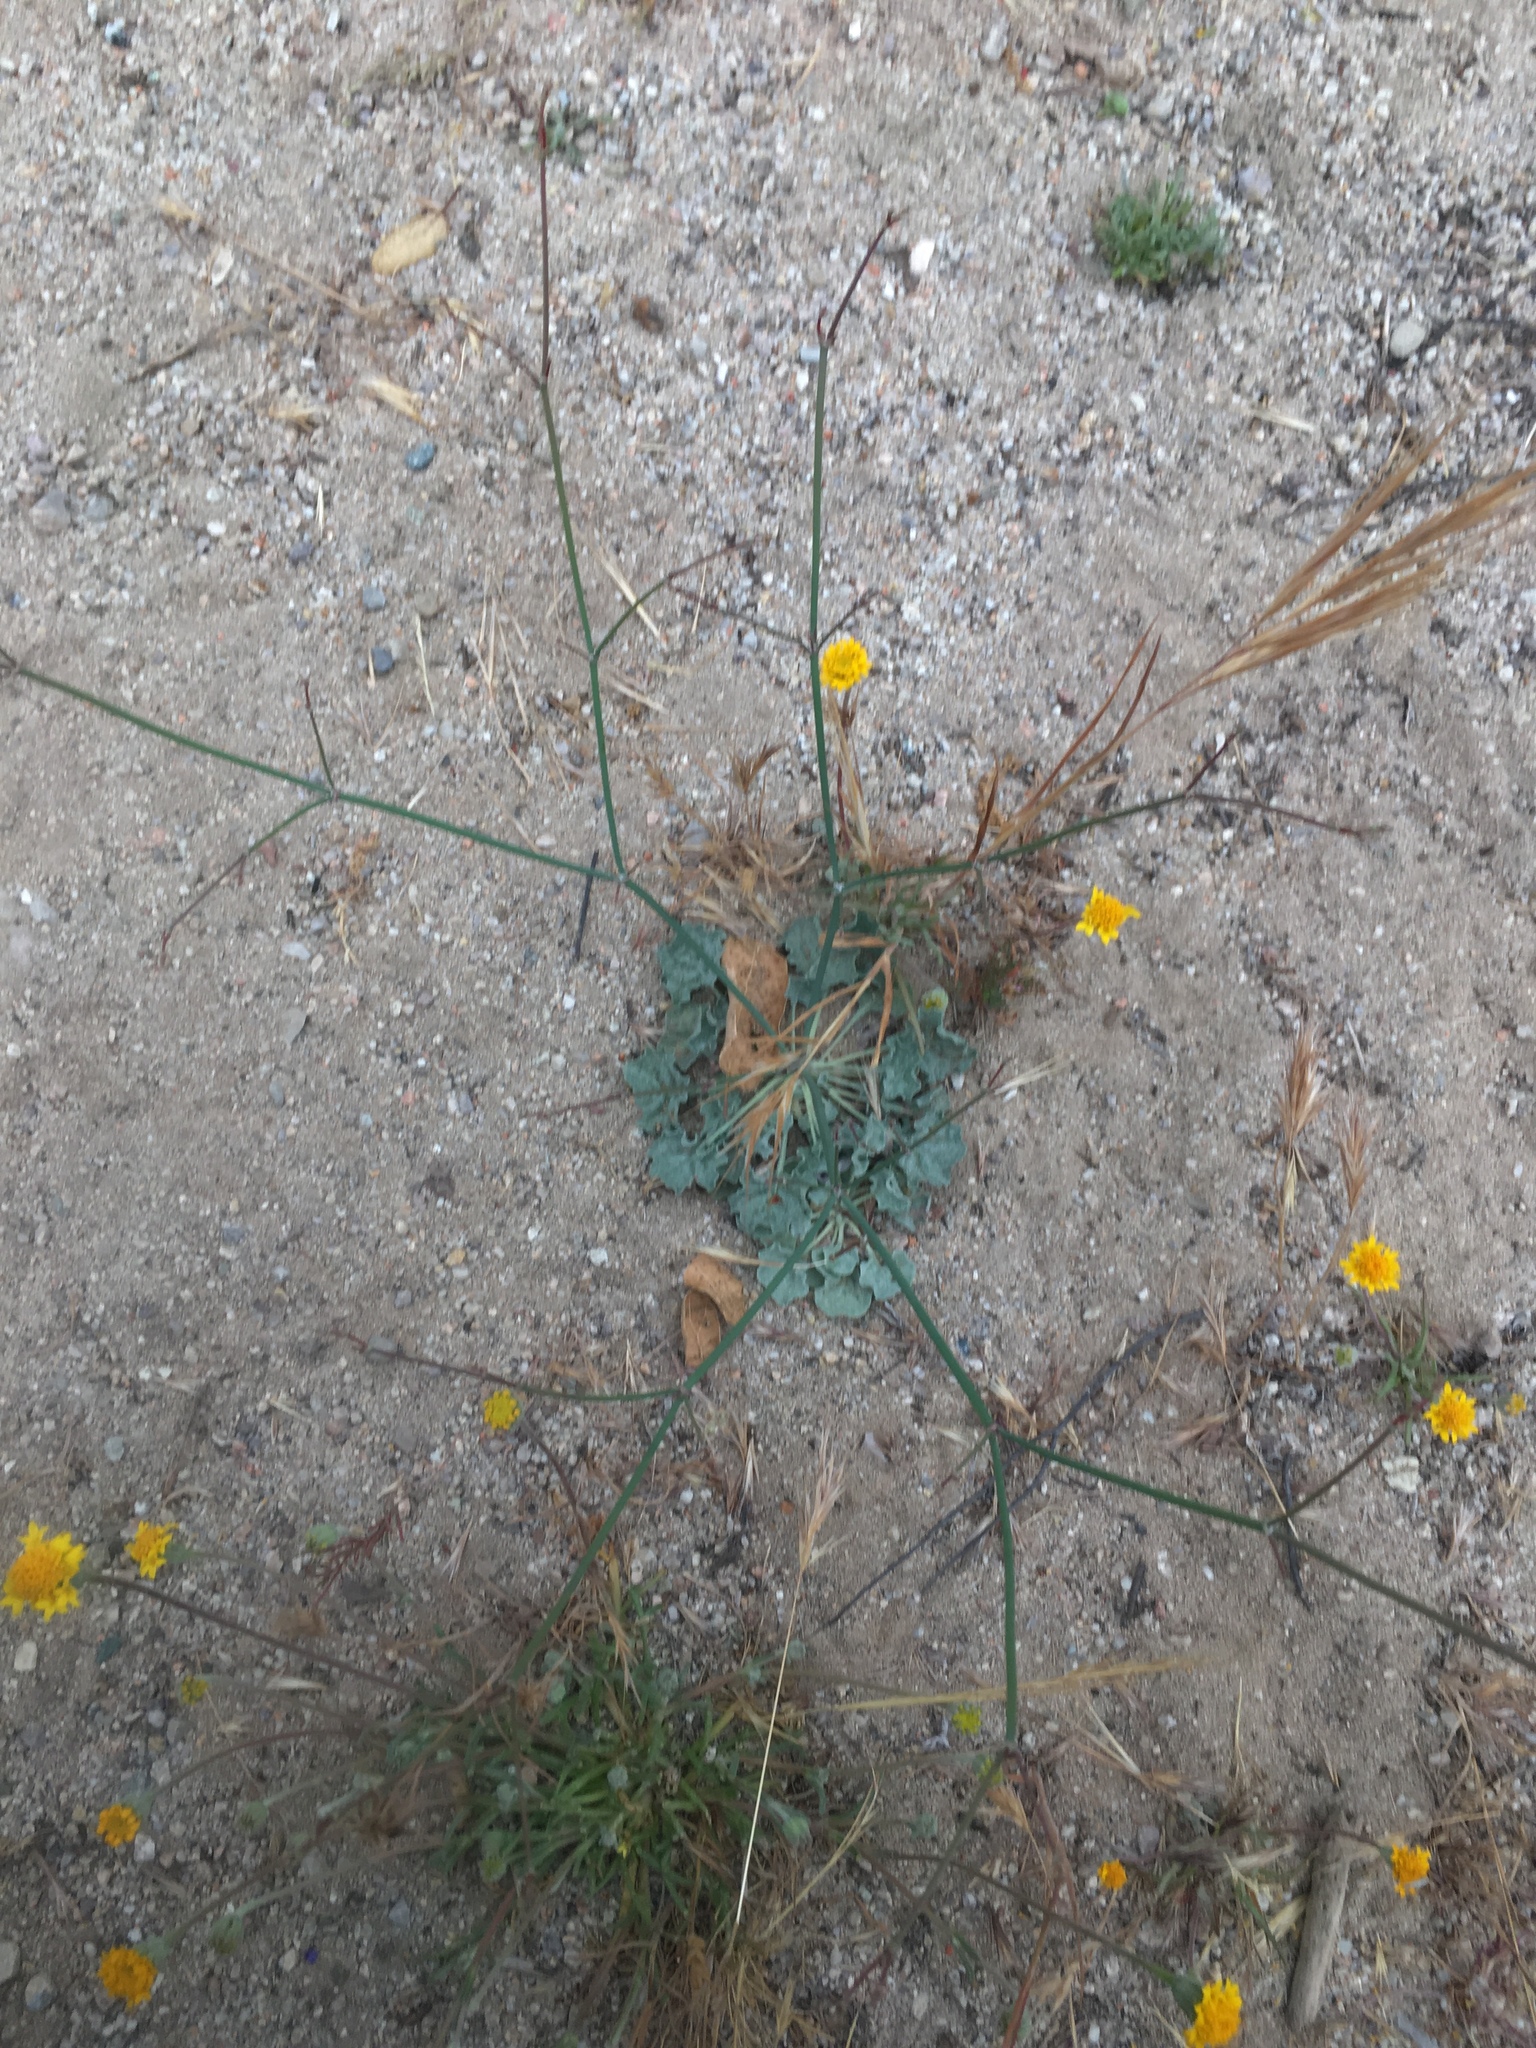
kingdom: Plantae
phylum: Tracheophyta
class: Magnoliopsida
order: Caryophyllales
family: Polygonaceae
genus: Eriogonum
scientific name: Eriogonum elegans
